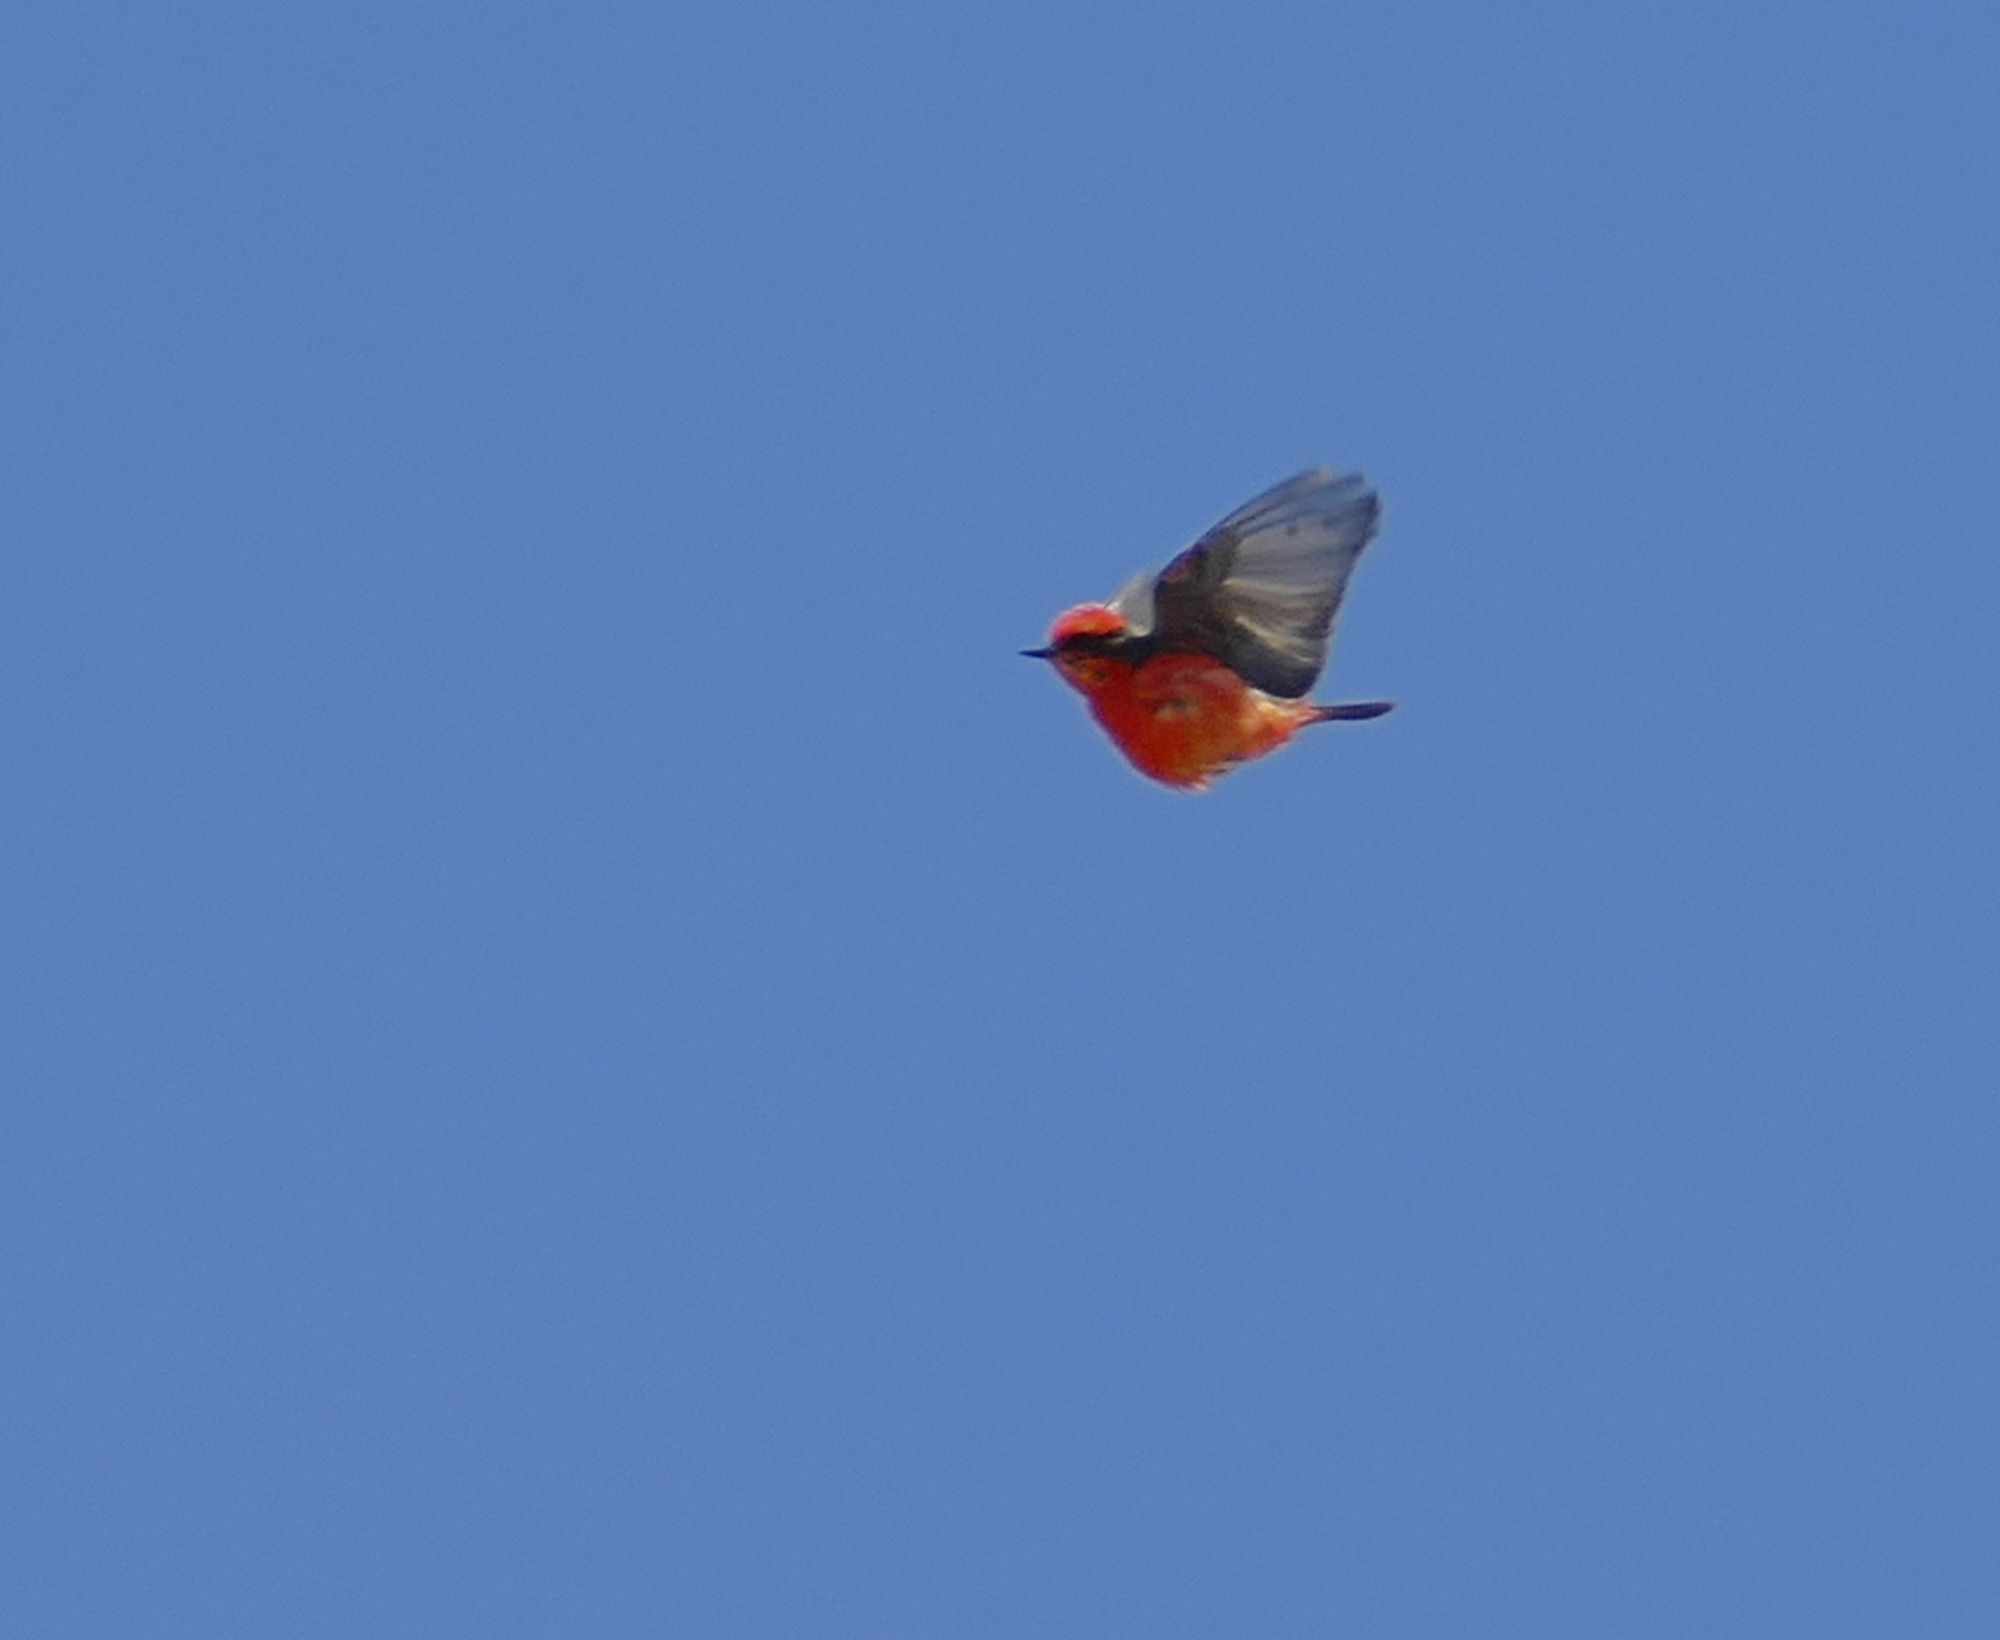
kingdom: Animalia
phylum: Chordata
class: Aves
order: Passeriformes
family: Tyrannidae
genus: Pyrocephalus
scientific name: Pyrocephalus rubinus
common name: Vermilion flycatcher
